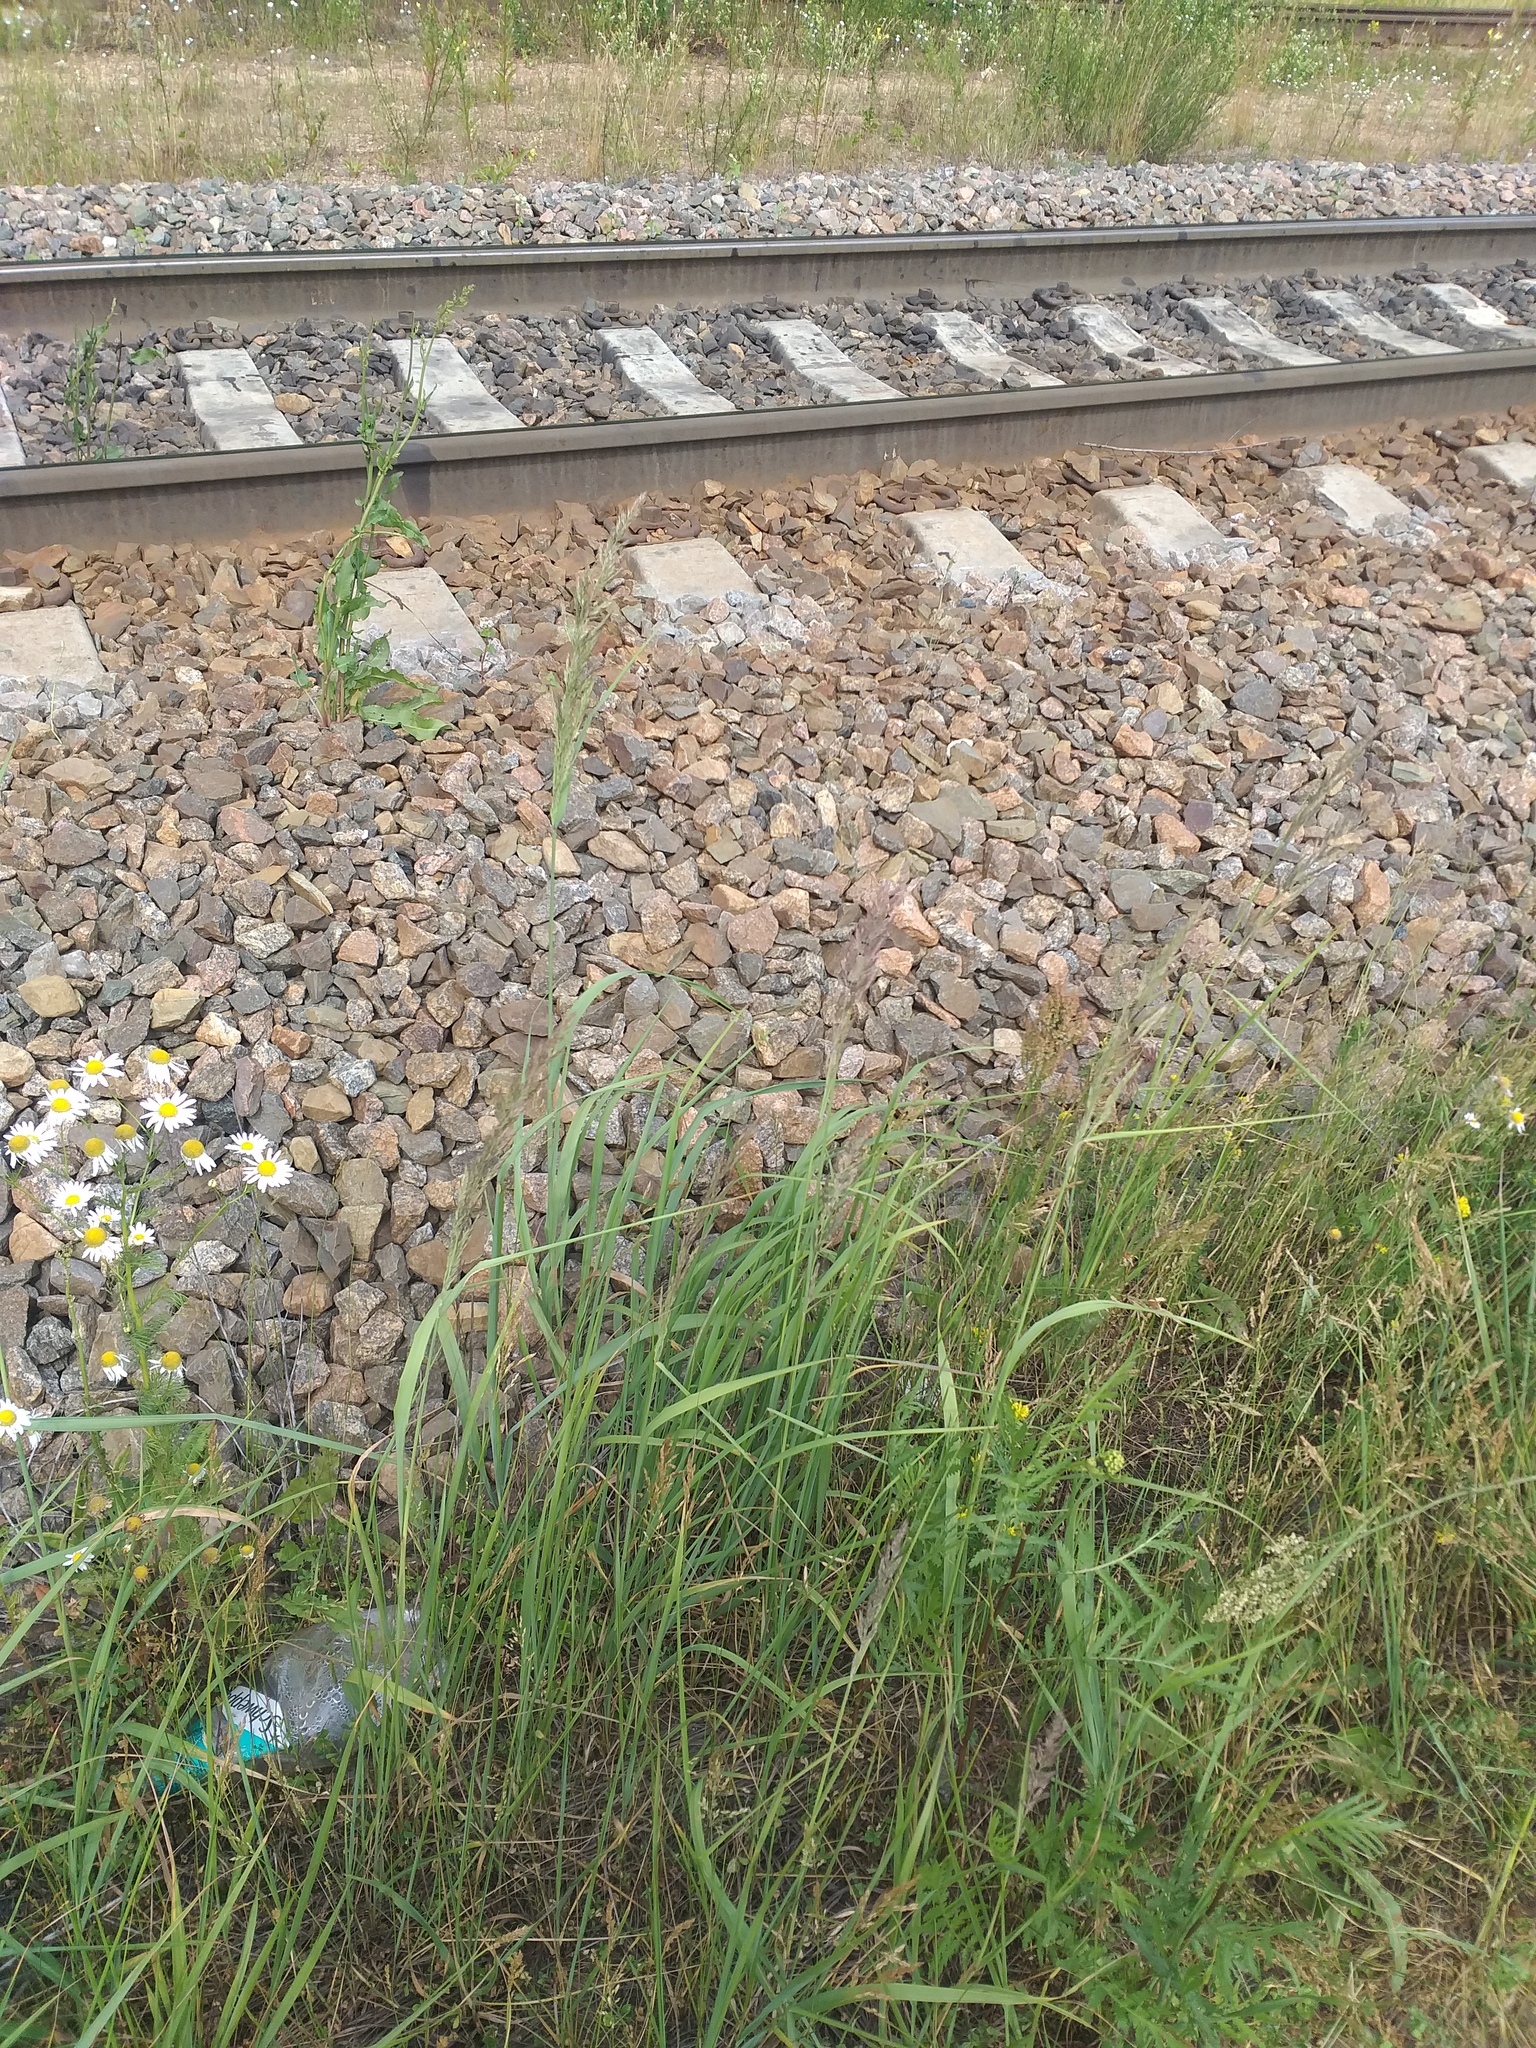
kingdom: Plantae
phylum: Tracheophyta
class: Liliopsida
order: Poales
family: Poaceae
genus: Calamagrostis
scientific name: Calamagrostis epigejos
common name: Wood small-reed
